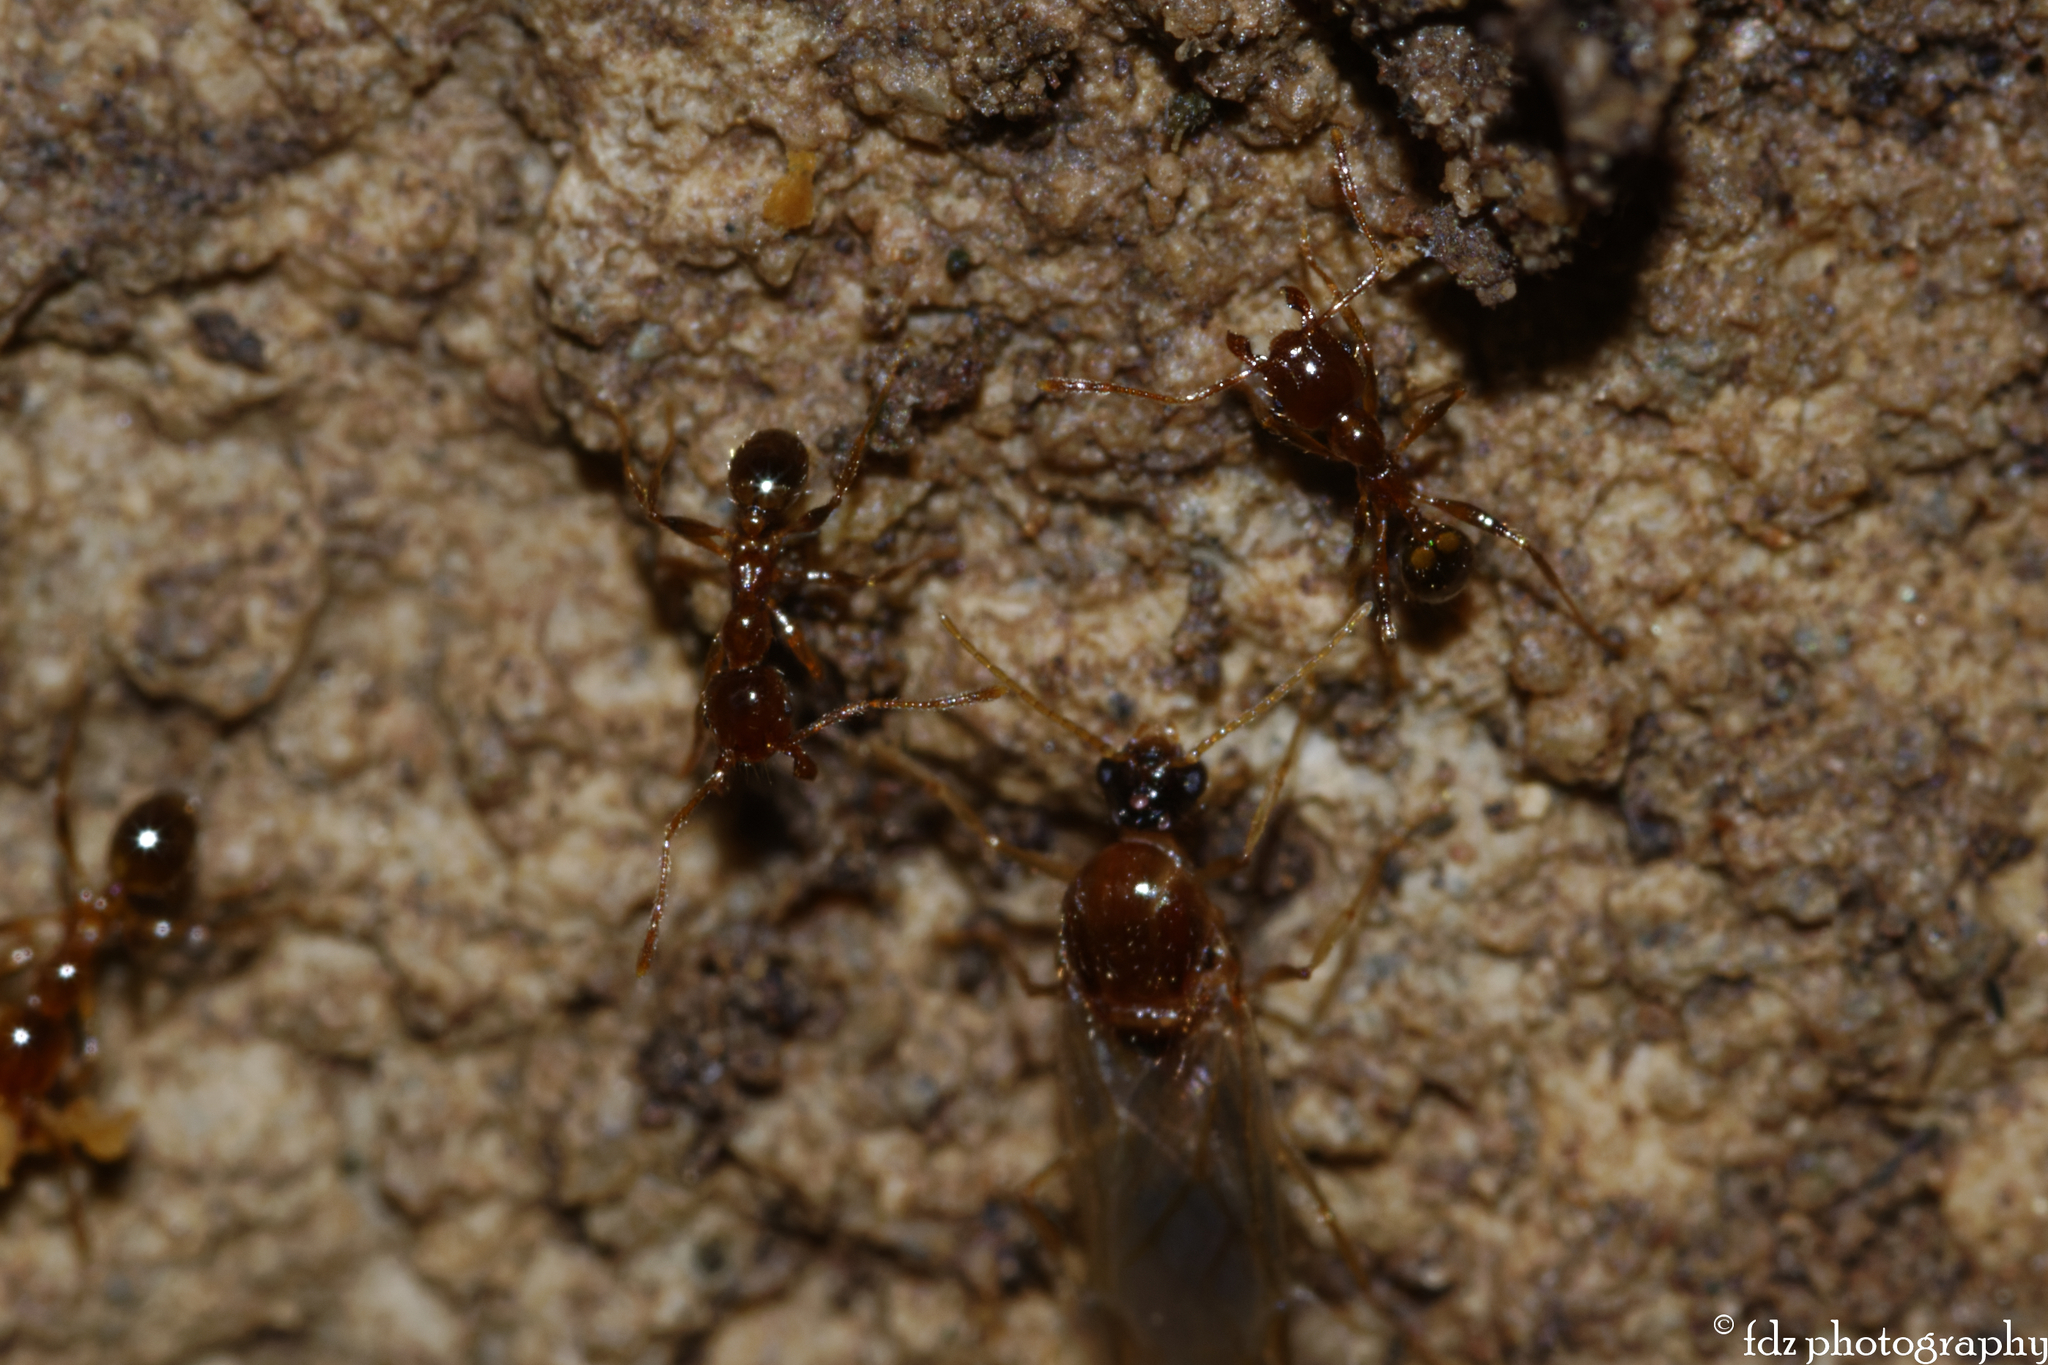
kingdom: Animalia
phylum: Arthropoda
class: Insecta
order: Hymenoptera
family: Formicidae
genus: Pheidole
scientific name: Pheidole pallidula
